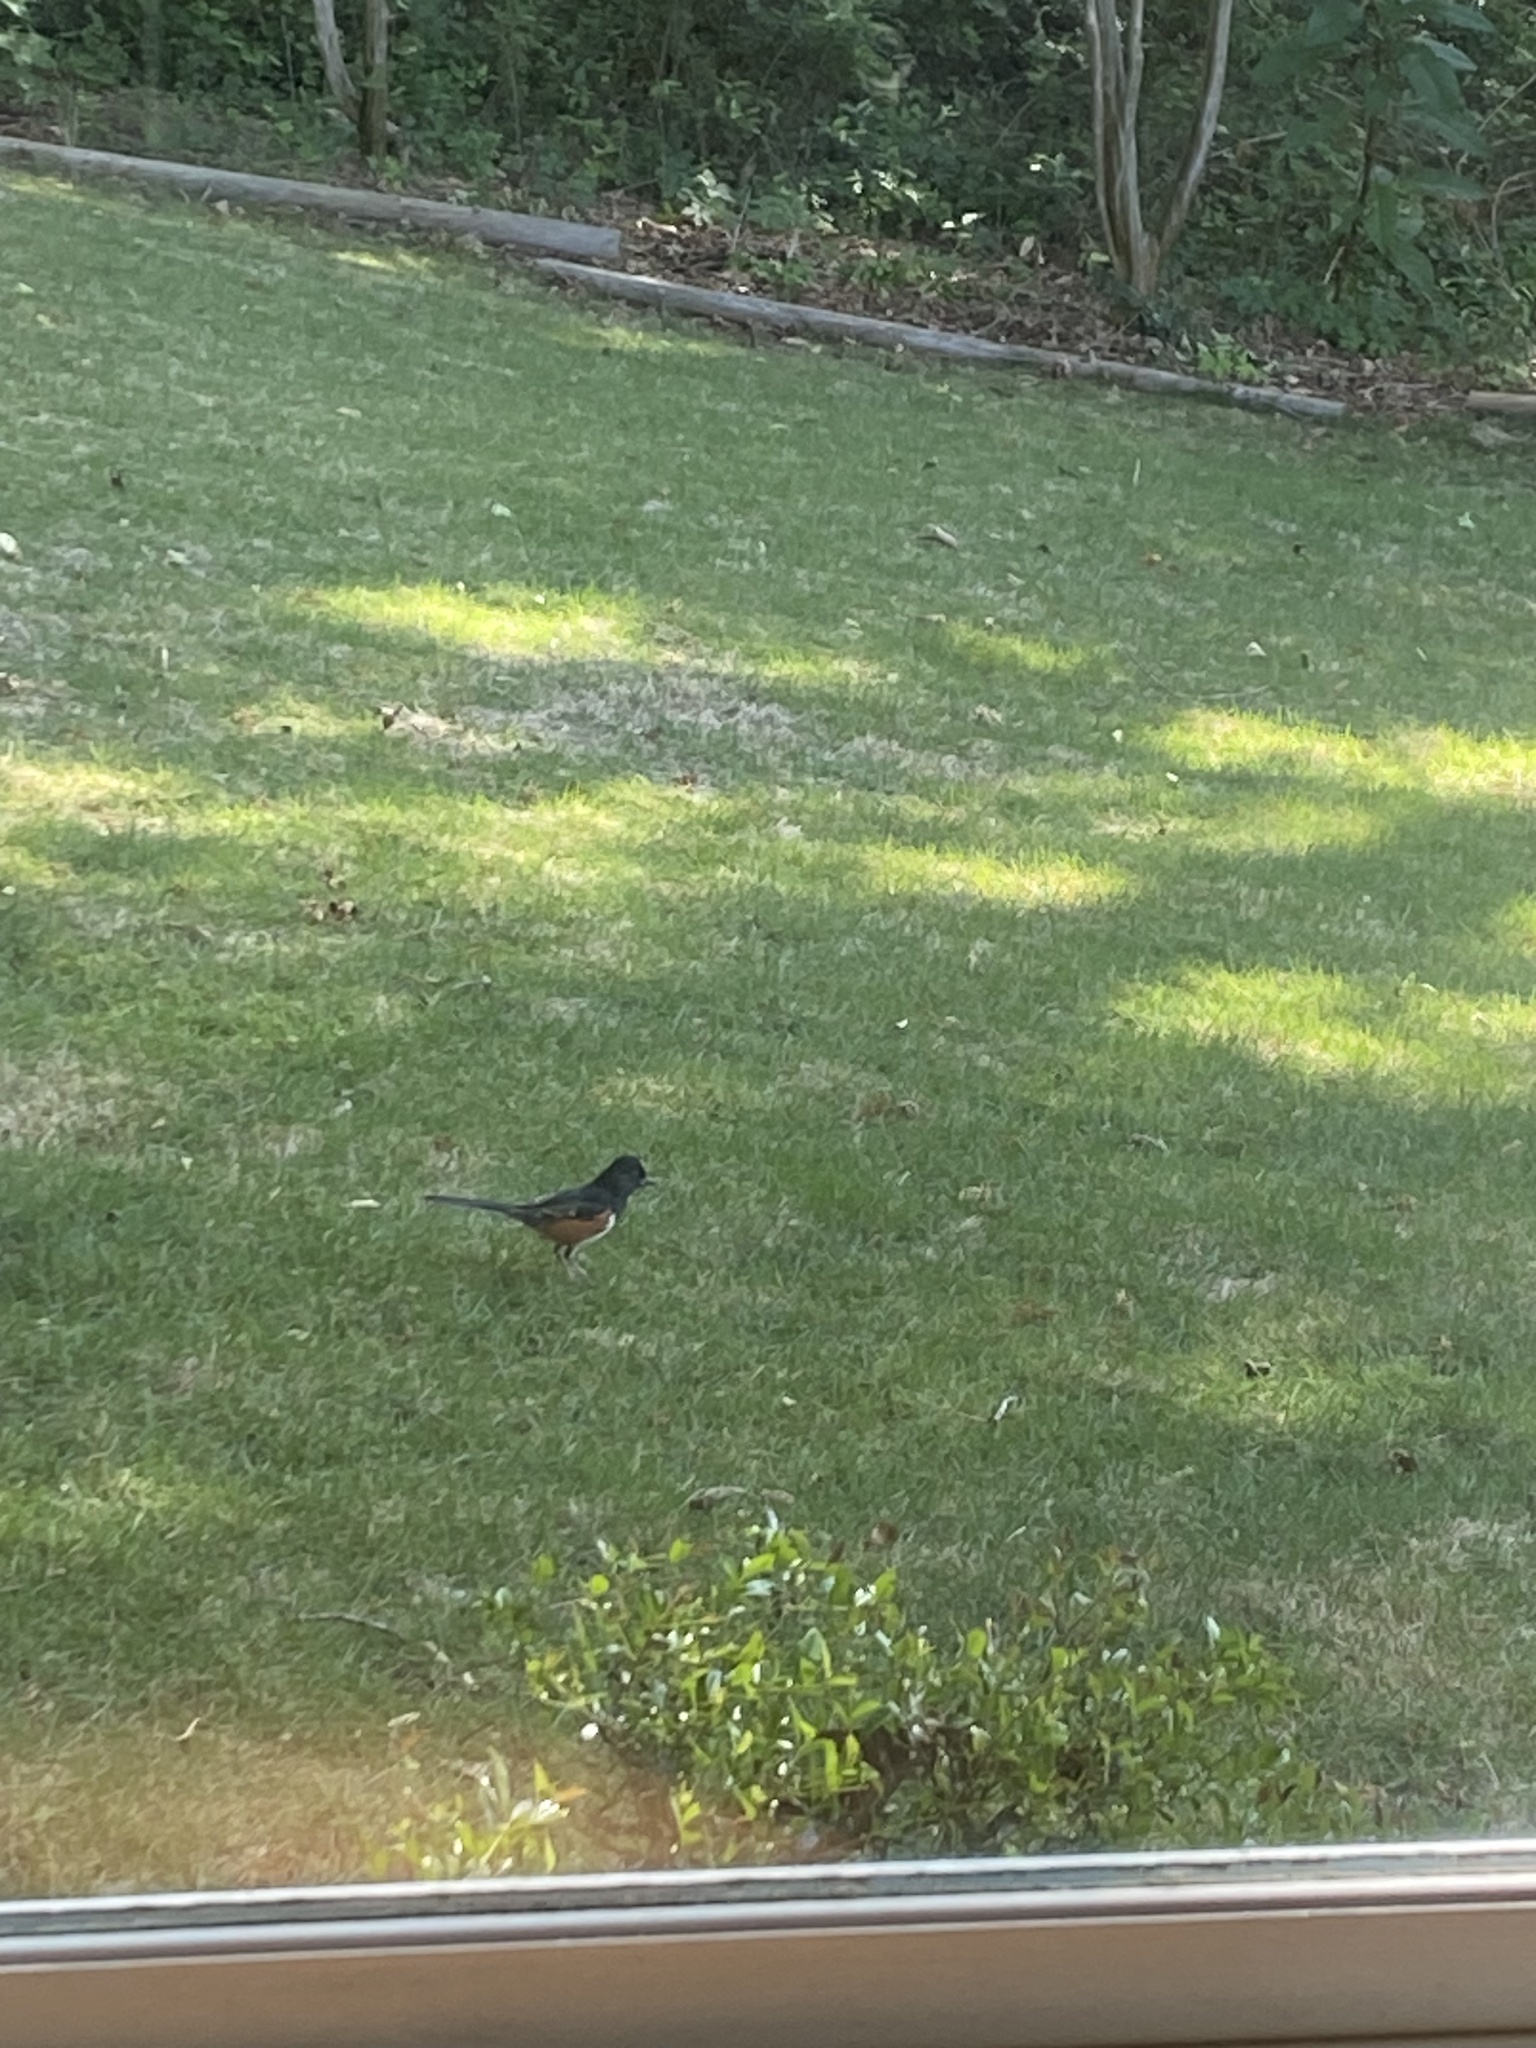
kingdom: Animalia
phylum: Chordata
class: Aves
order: Passeriformes
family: Passerellidae
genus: Pipilo
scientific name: Pipilo erythrophthalmus
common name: Eastern towhee
